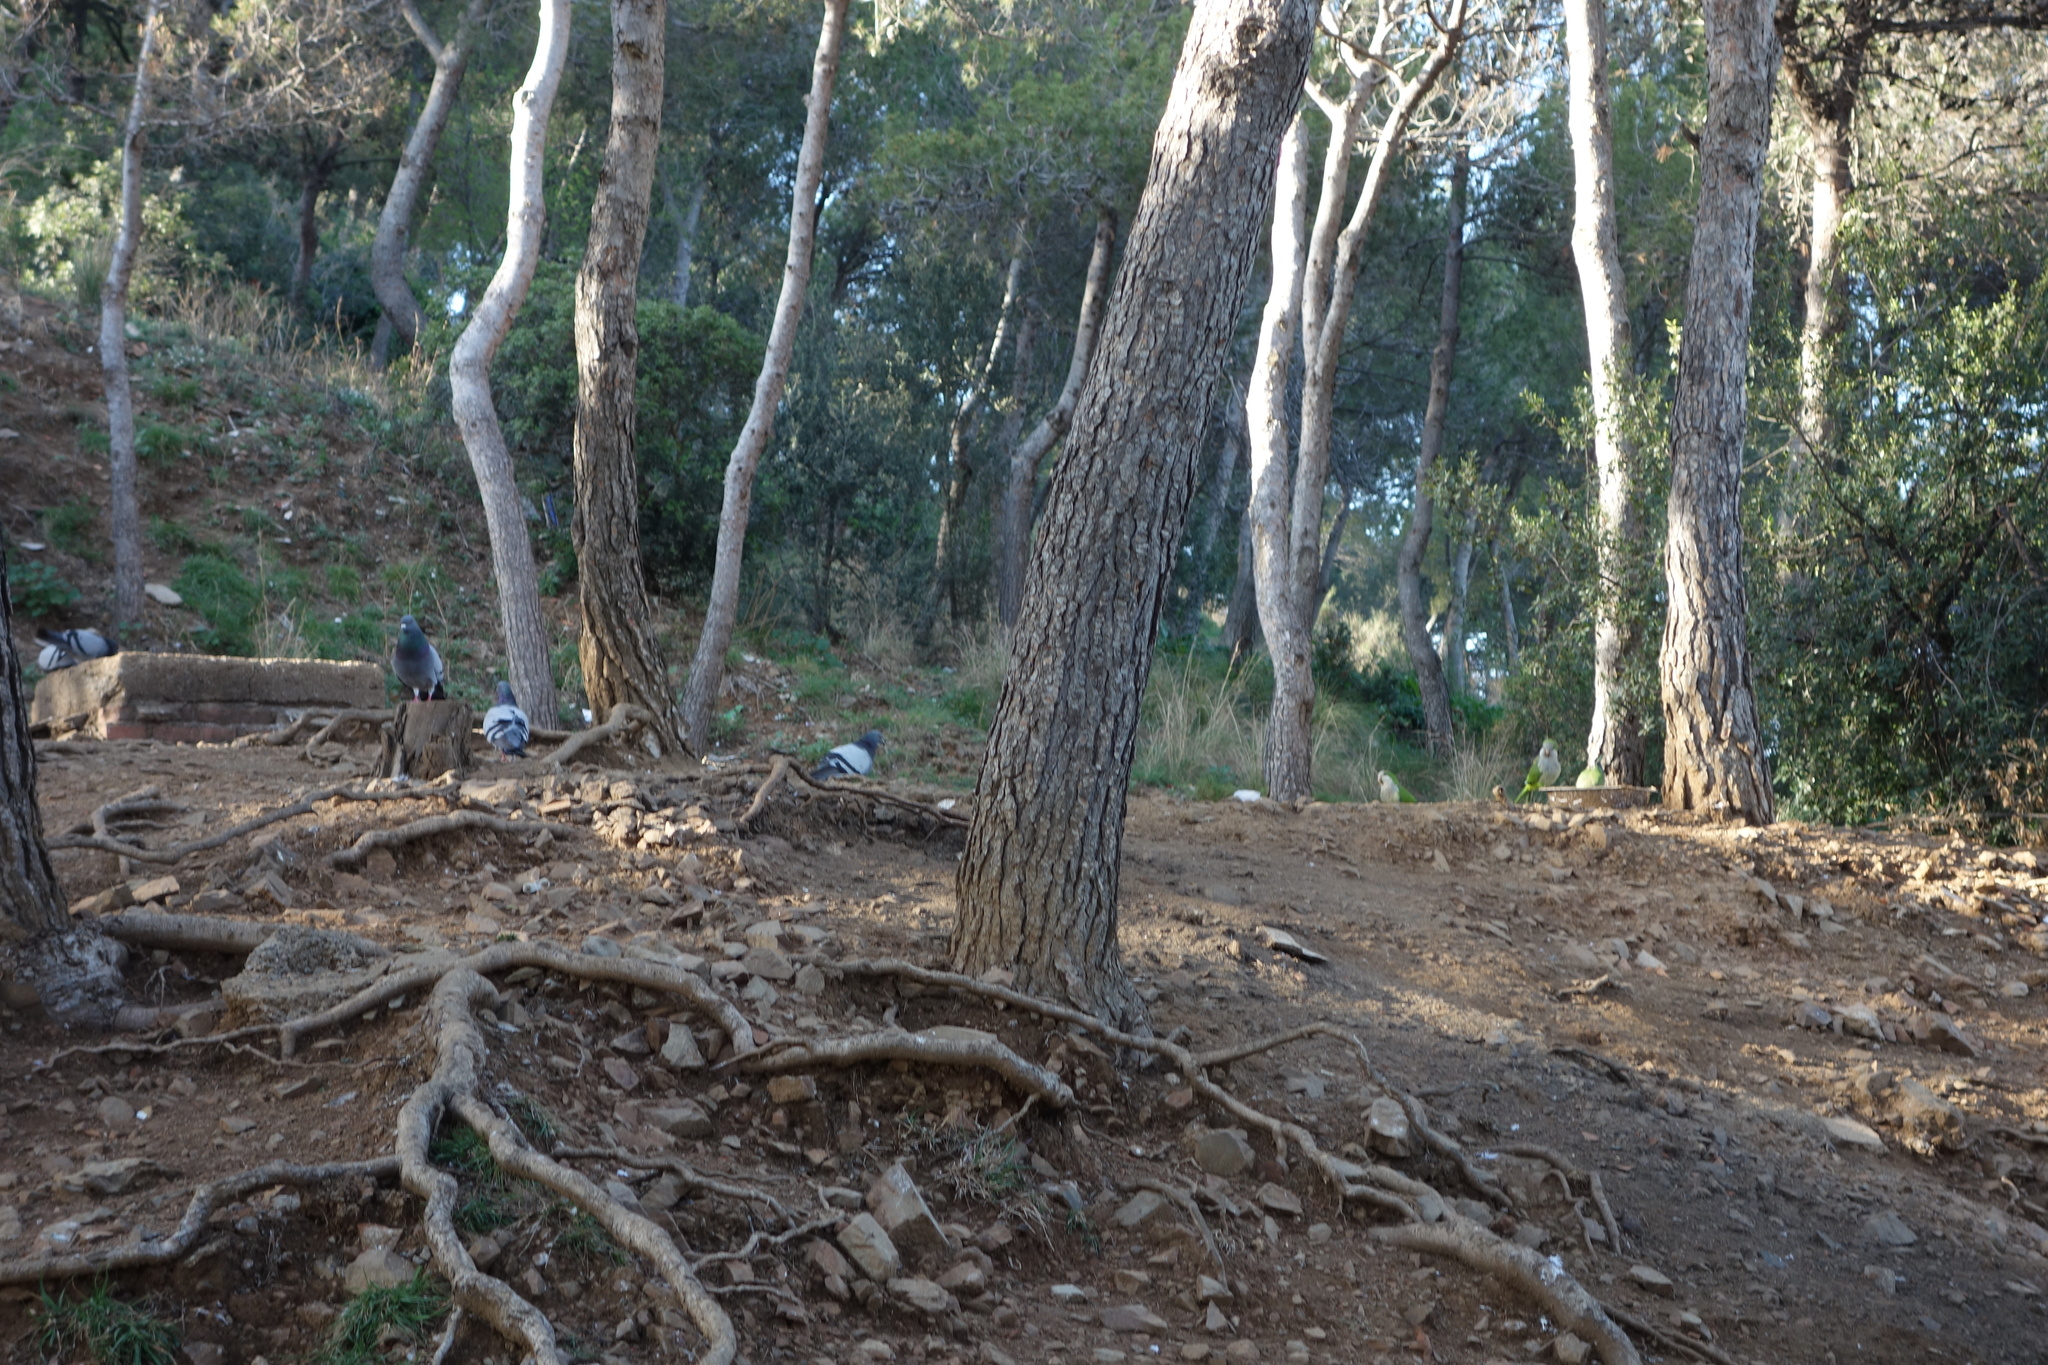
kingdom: Animalia
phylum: Chordata
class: Aves
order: Psittaciformes
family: Psittacidae
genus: Myiopsitta
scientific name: Myiopsitta monachus
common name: Monk parakeet
